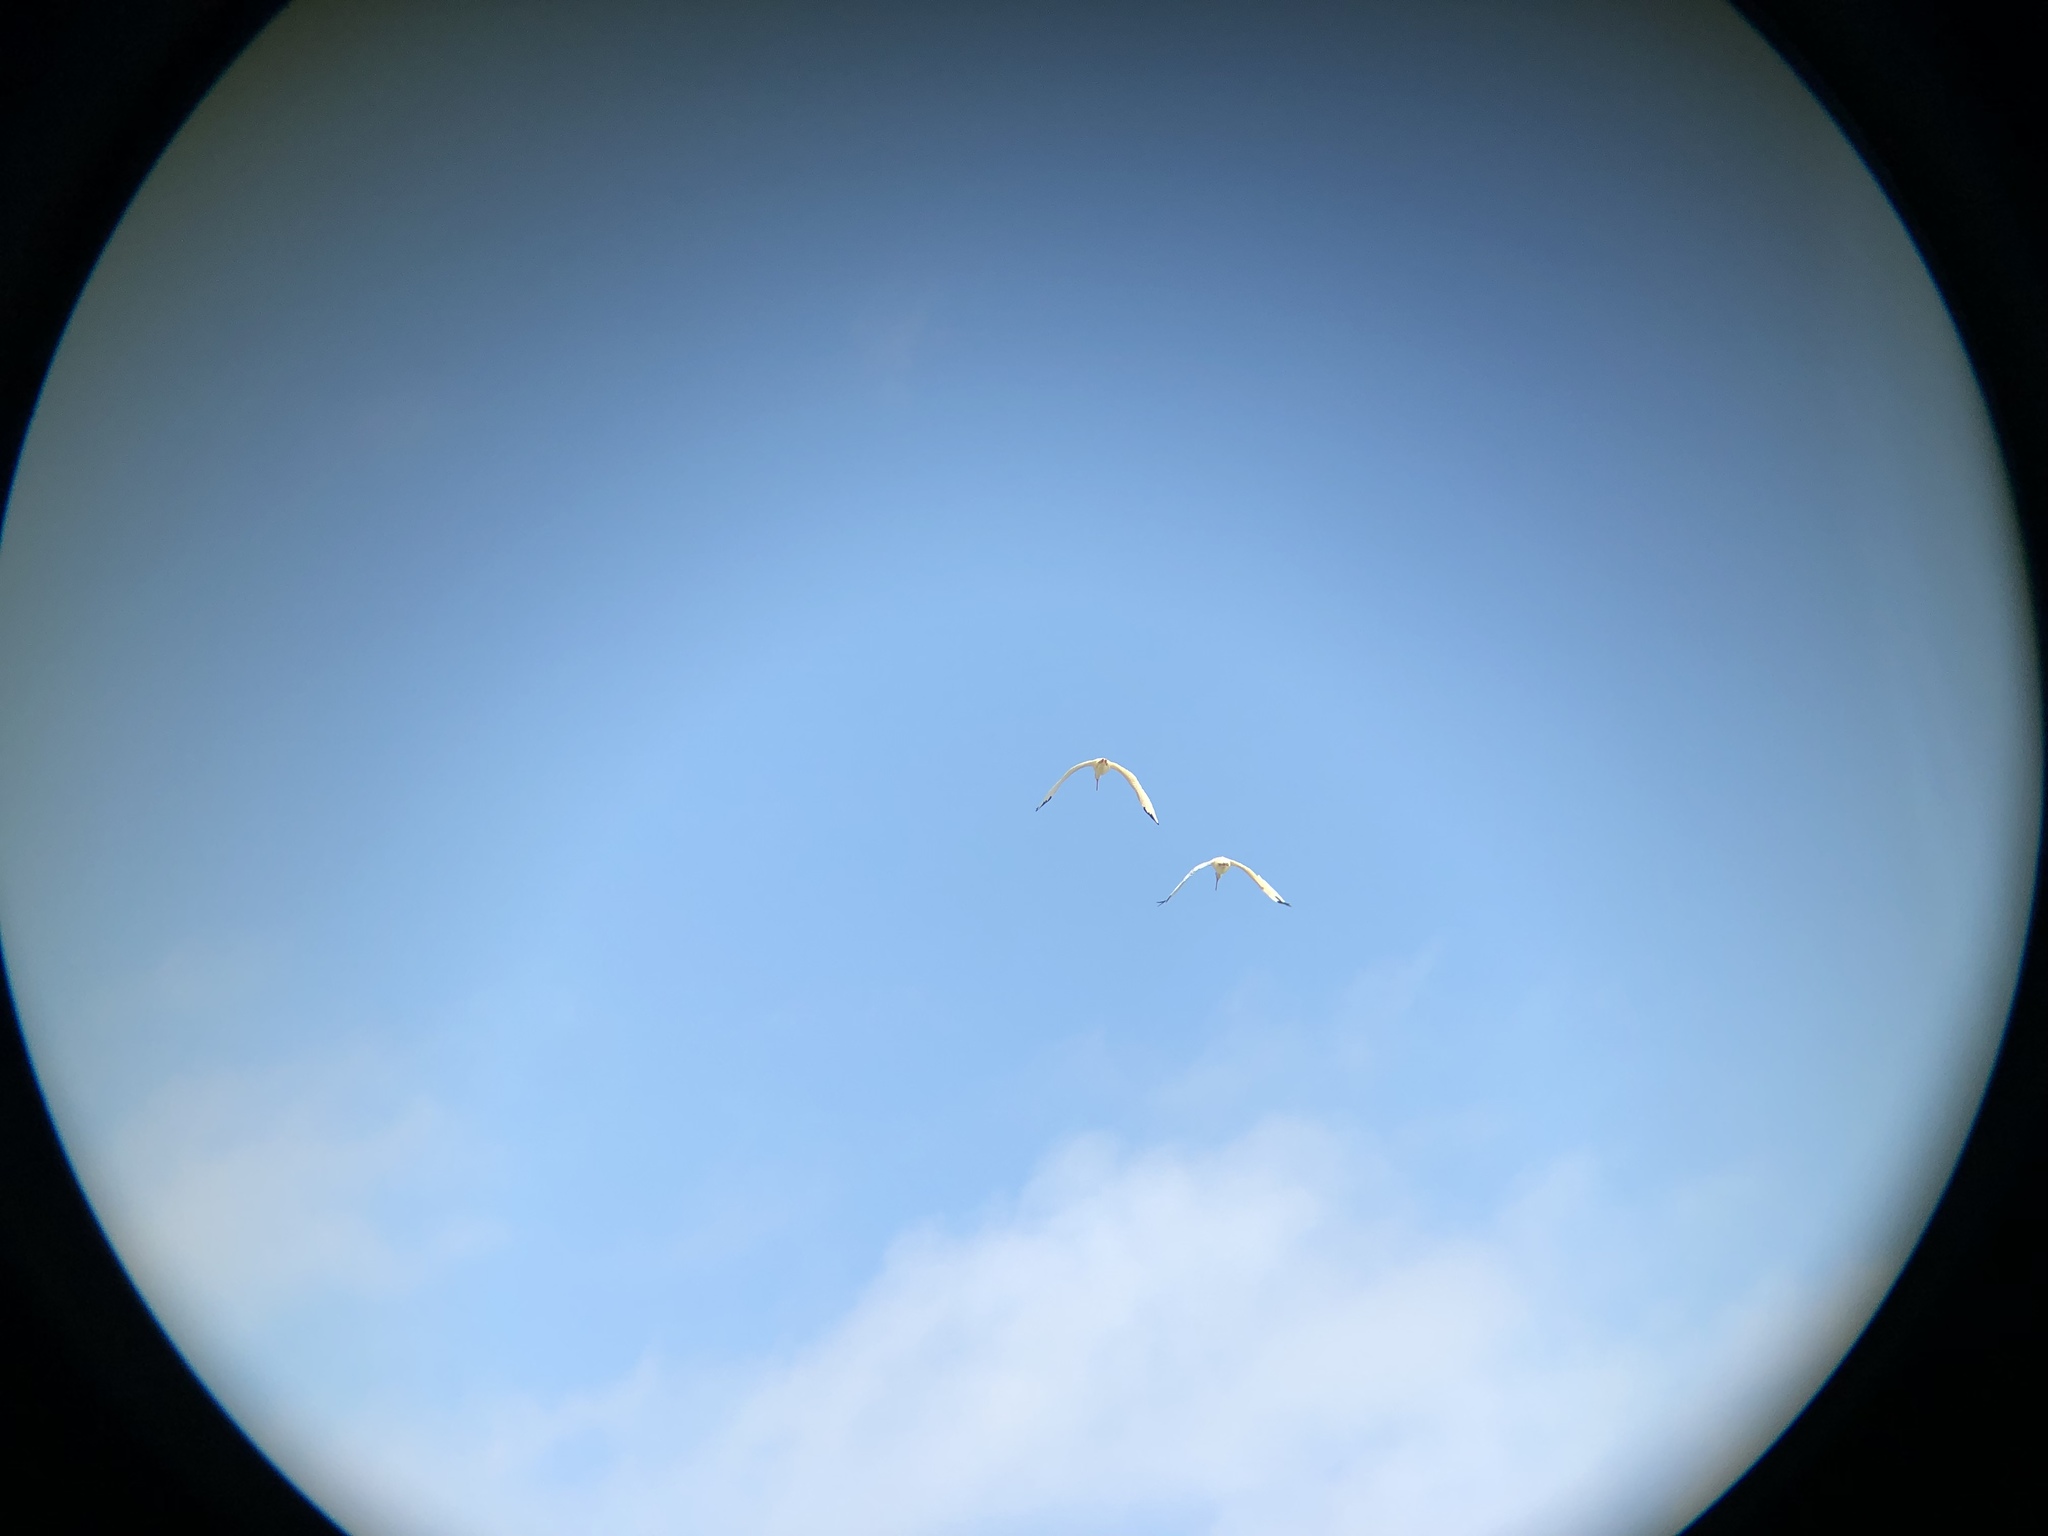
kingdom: Animalia
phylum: Chordata
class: Aves
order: Pelecaniformes
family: Threskiornithidae
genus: Eudocimus
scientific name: Eudocimus albus
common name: White ibis
